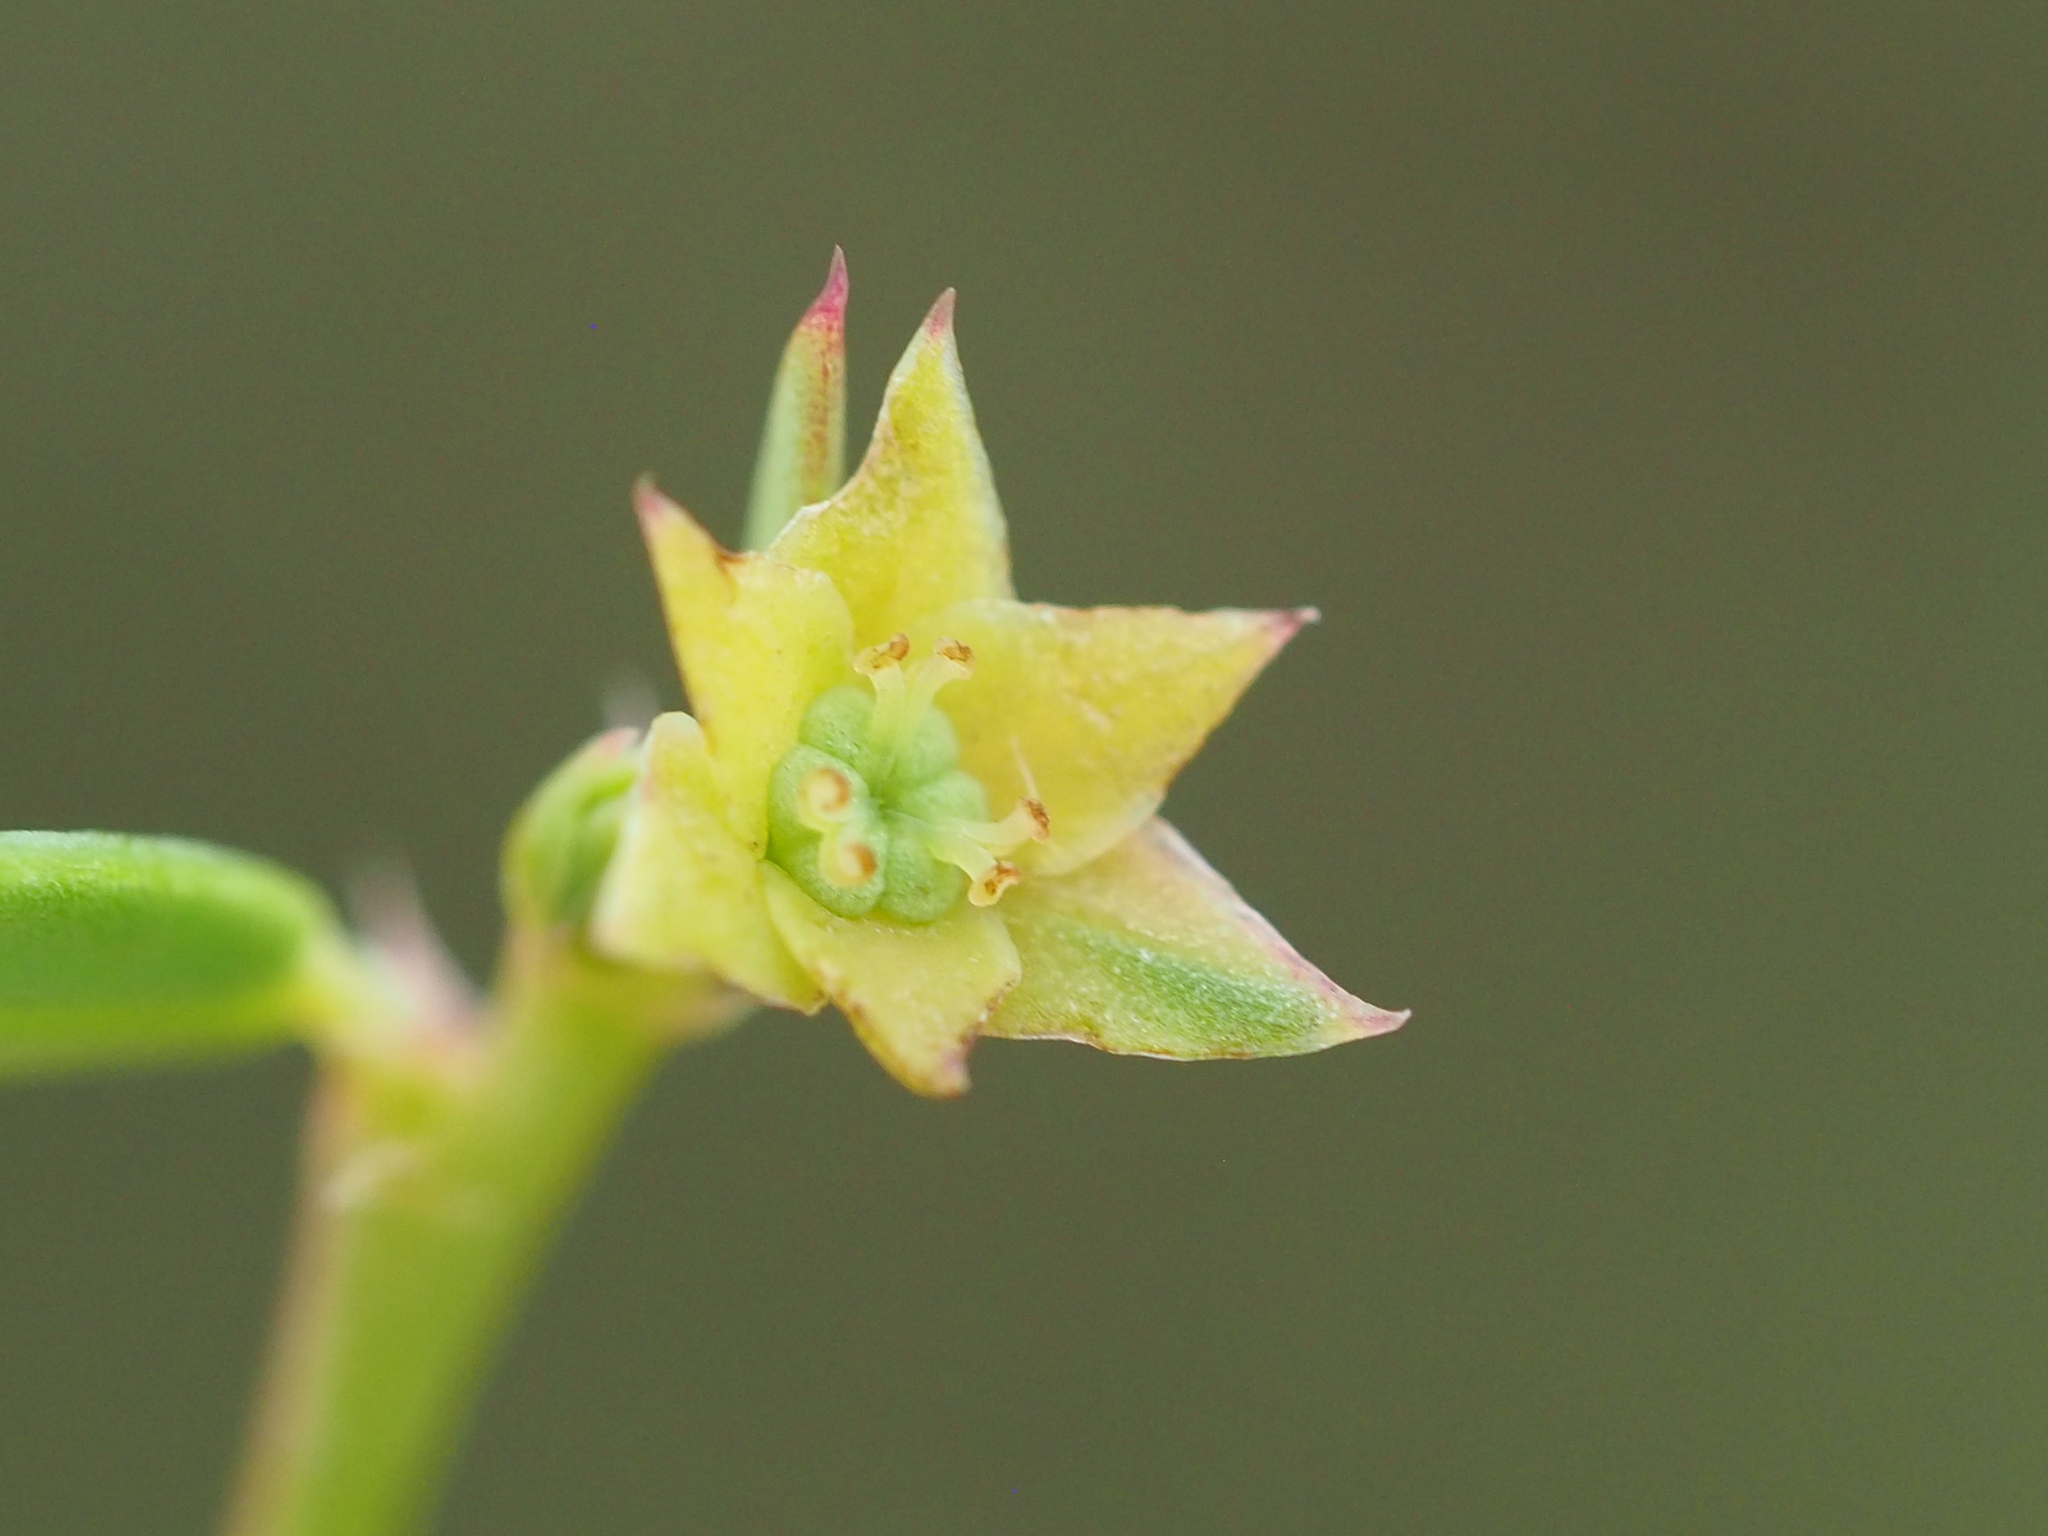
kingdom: Plantae
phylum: Tracheophyta
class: Magnoliopsida
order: Malpighiales
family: Phyllanthaceae
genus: Synostemon
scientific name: Synostemon bacciformis
